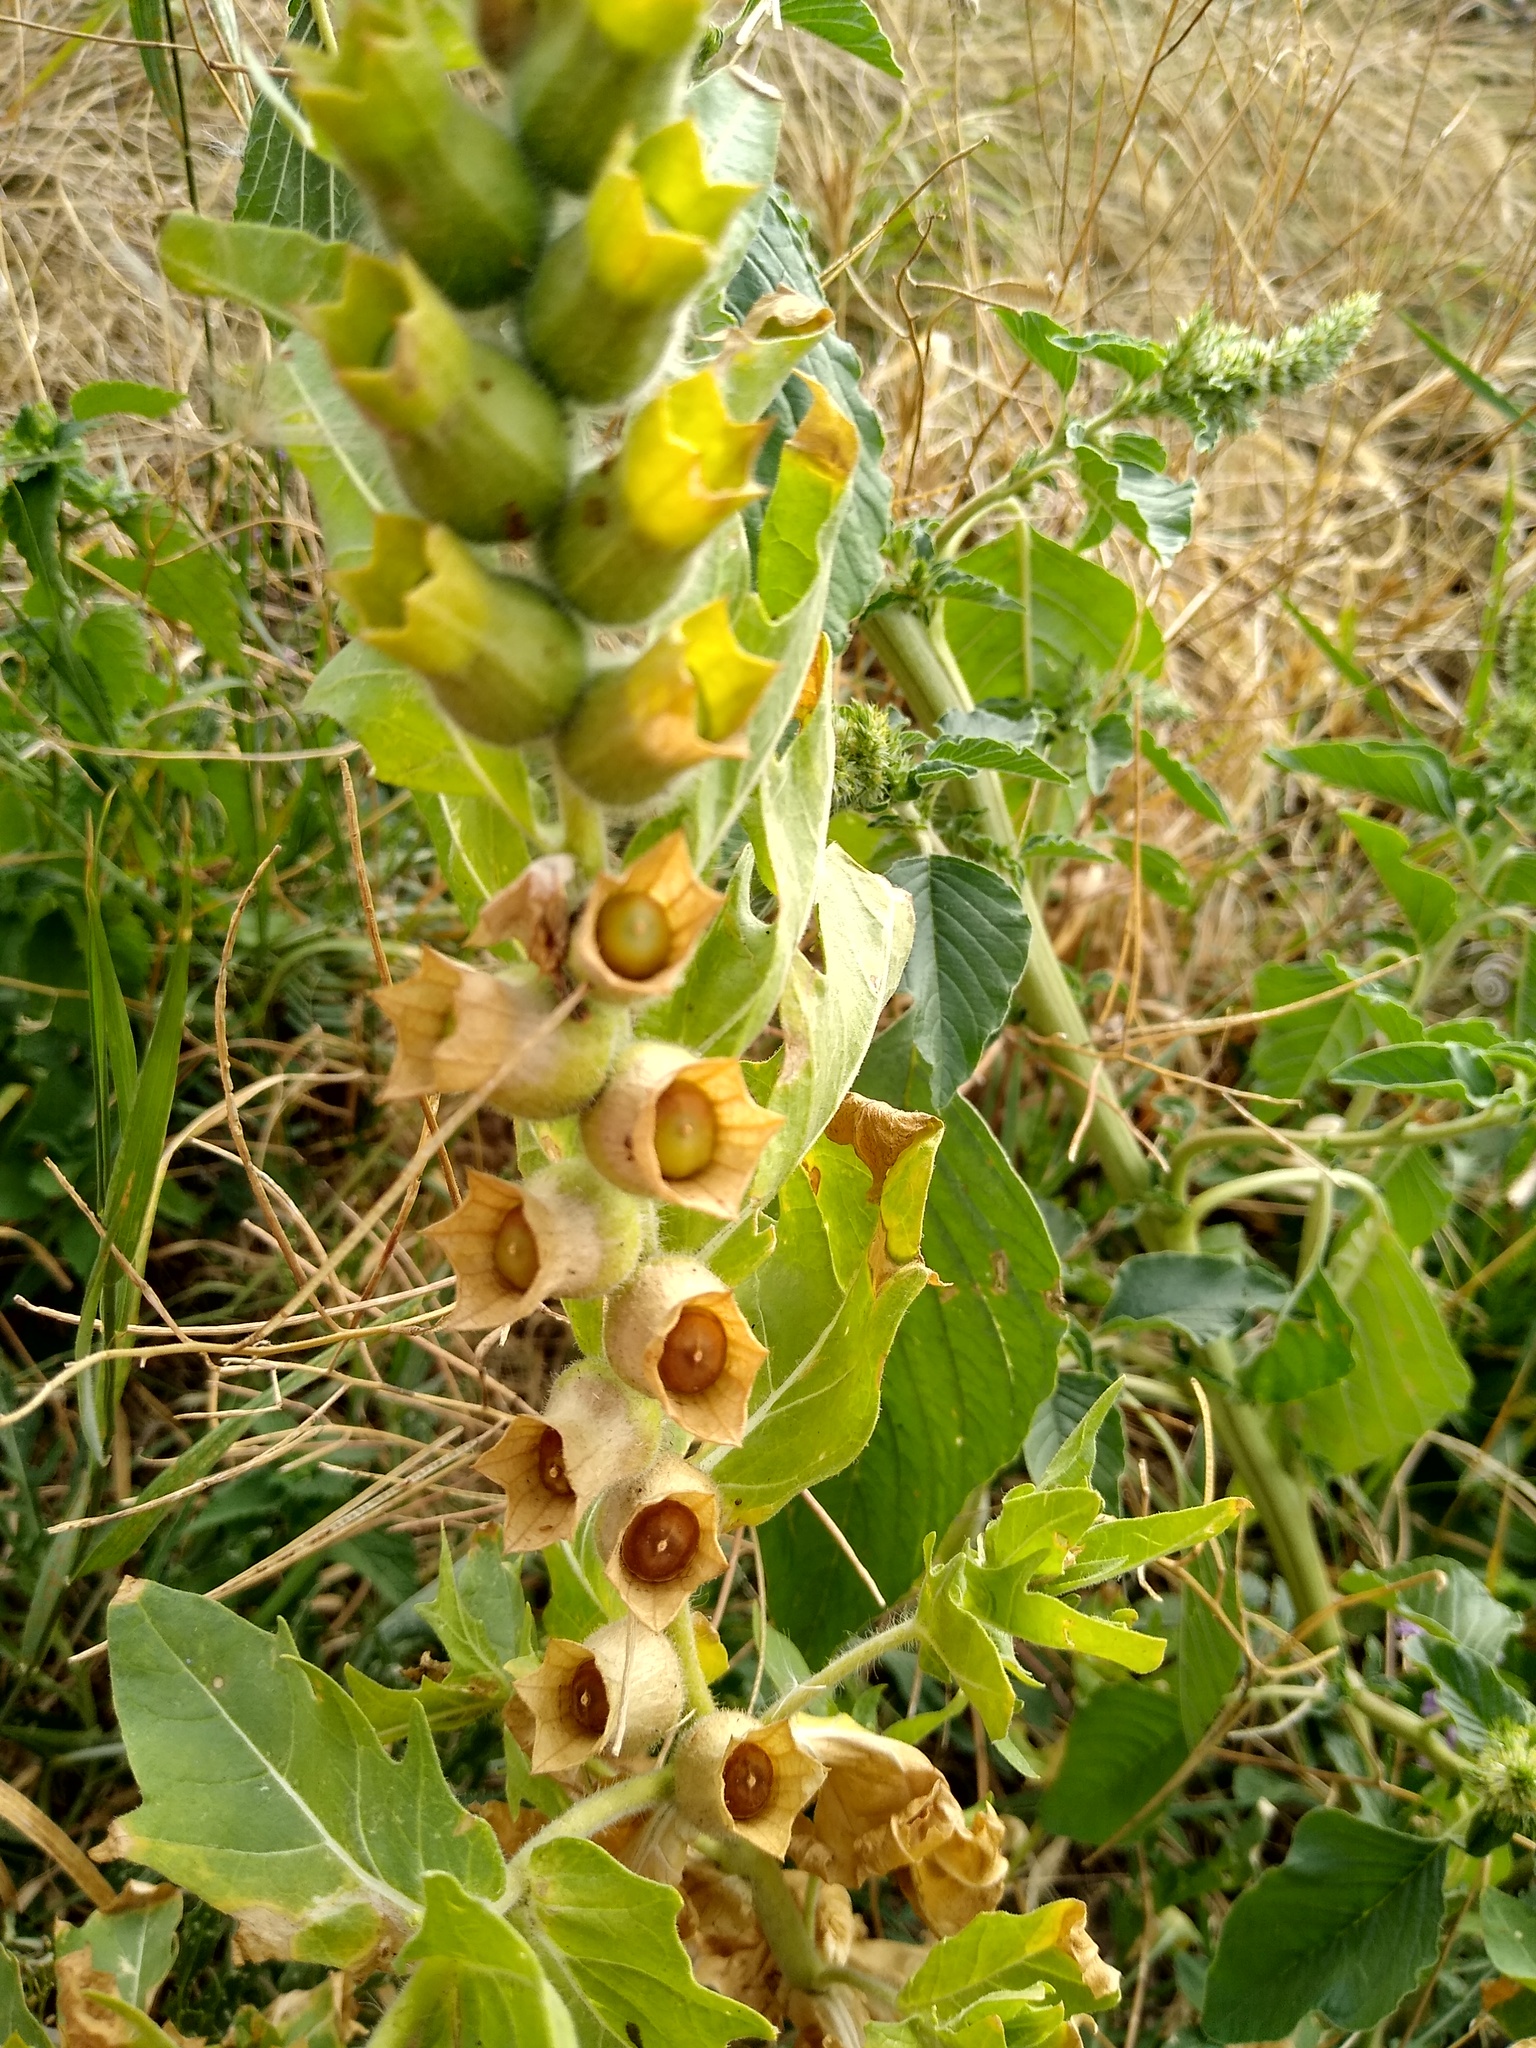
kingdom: Plantae
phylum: Tracheophyta
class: Magnoliopsida
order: Solanales
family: Solanaceae
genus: Hyoscyamus
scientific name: Hyoscyamus niger
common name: Henbane
